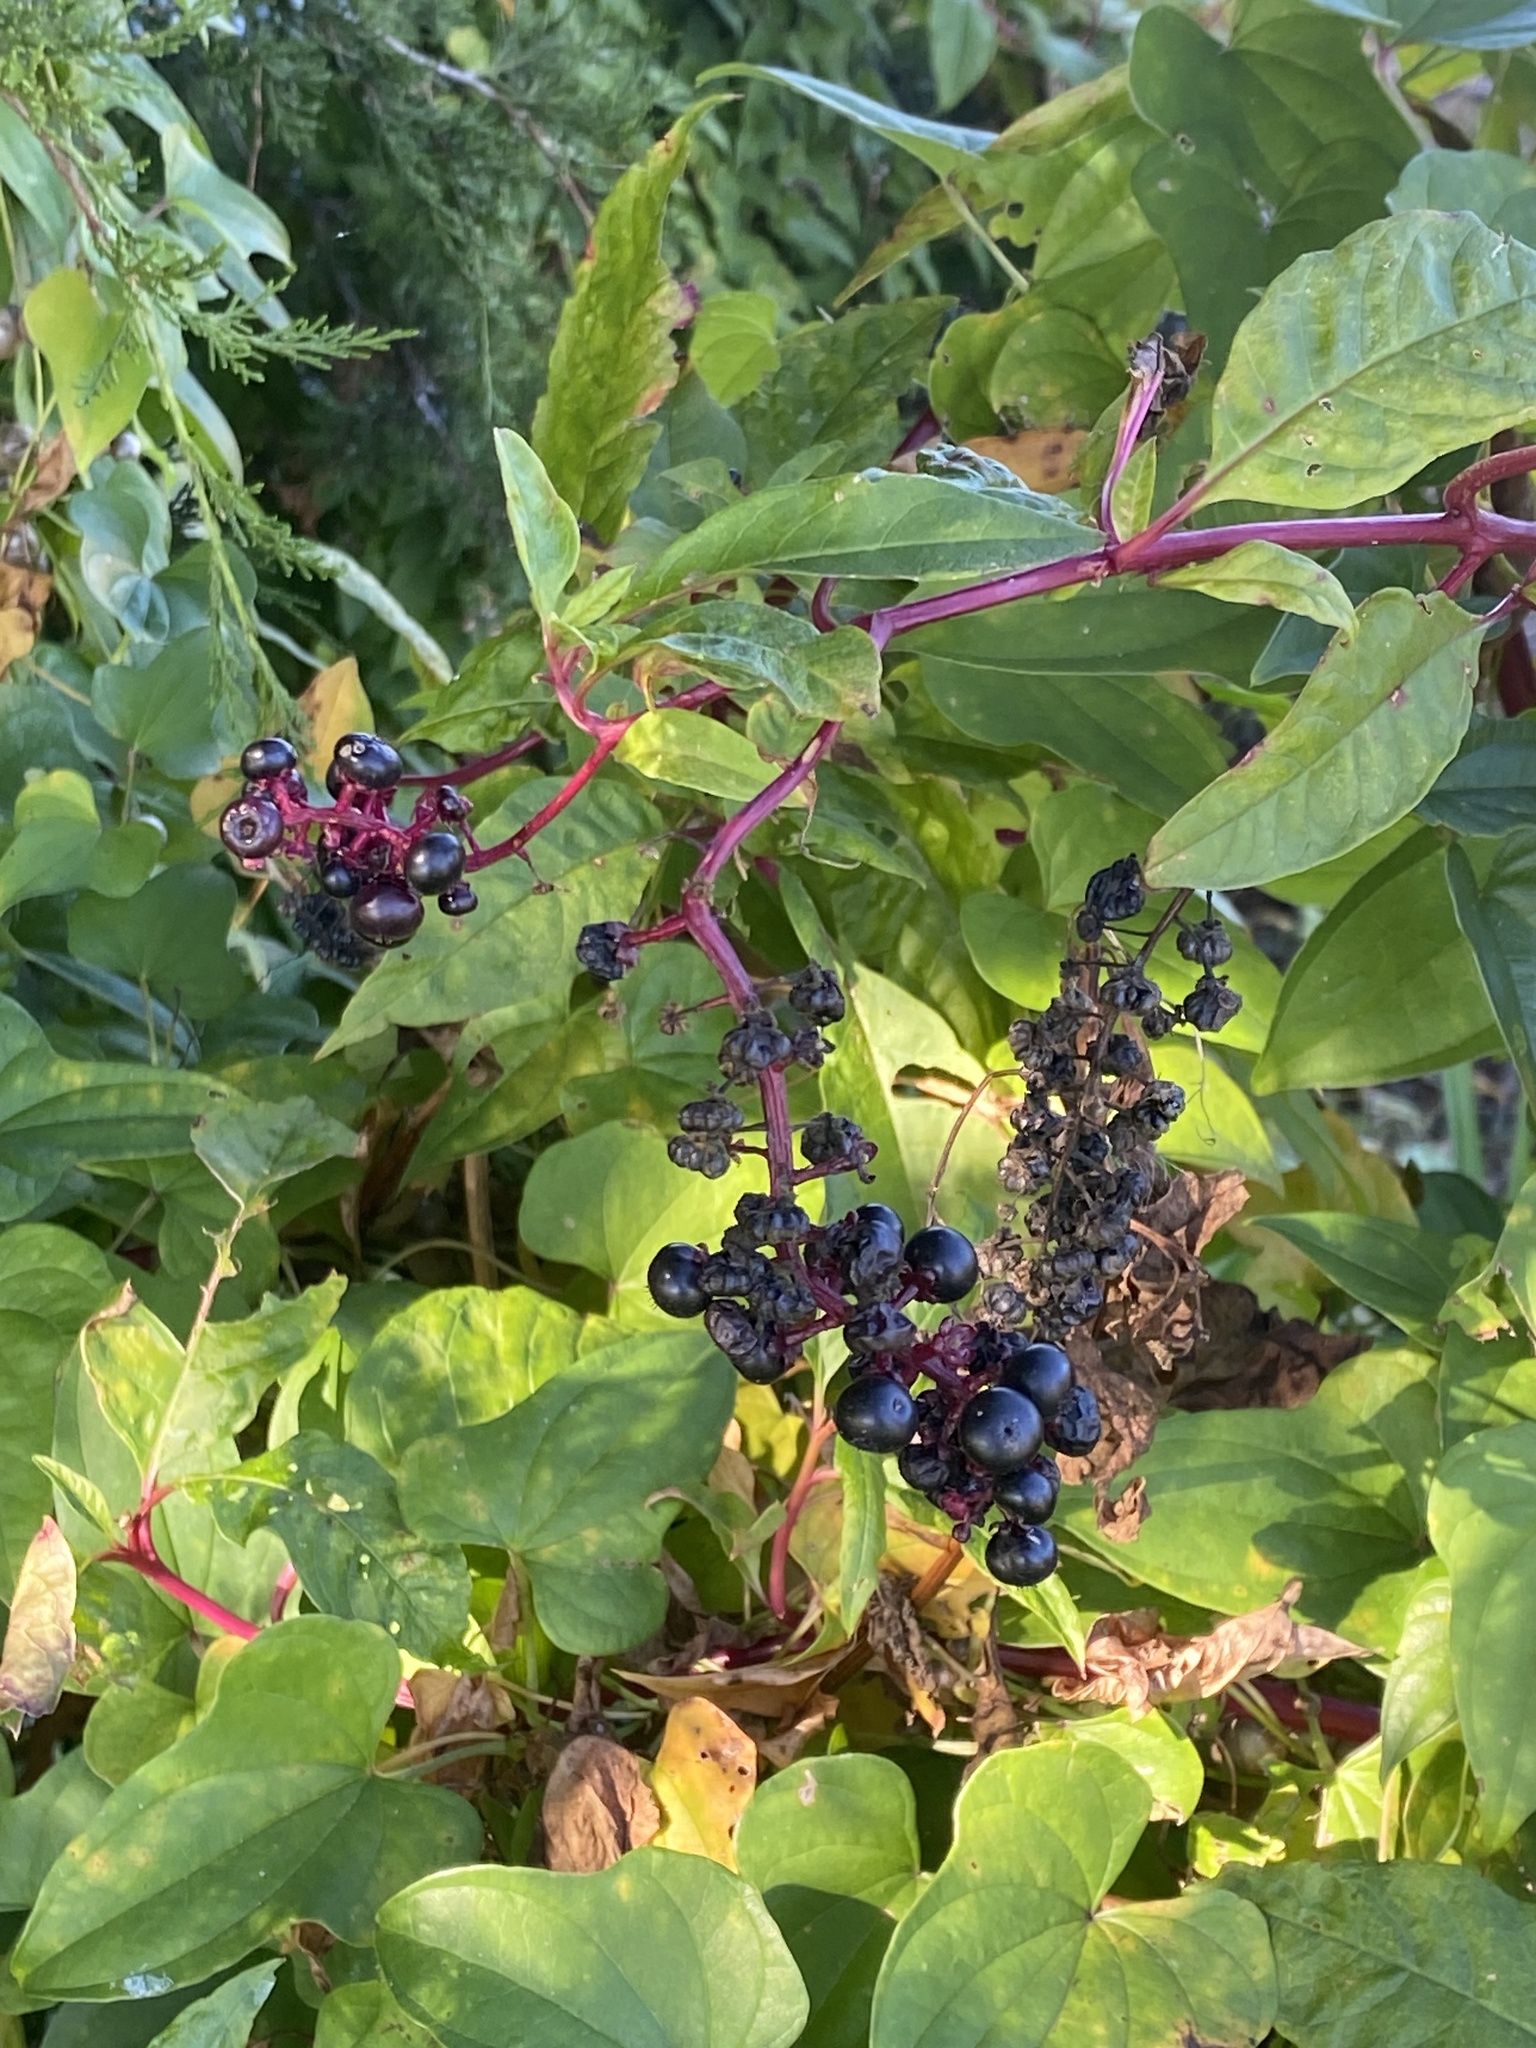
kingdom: Plantae
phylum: Tracheophyta
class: Magnoliopsida
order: Caryophyllales
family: Phytolaccaceae
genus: Phytolacca
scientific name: Phytolacca americana
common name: American pokeweed
